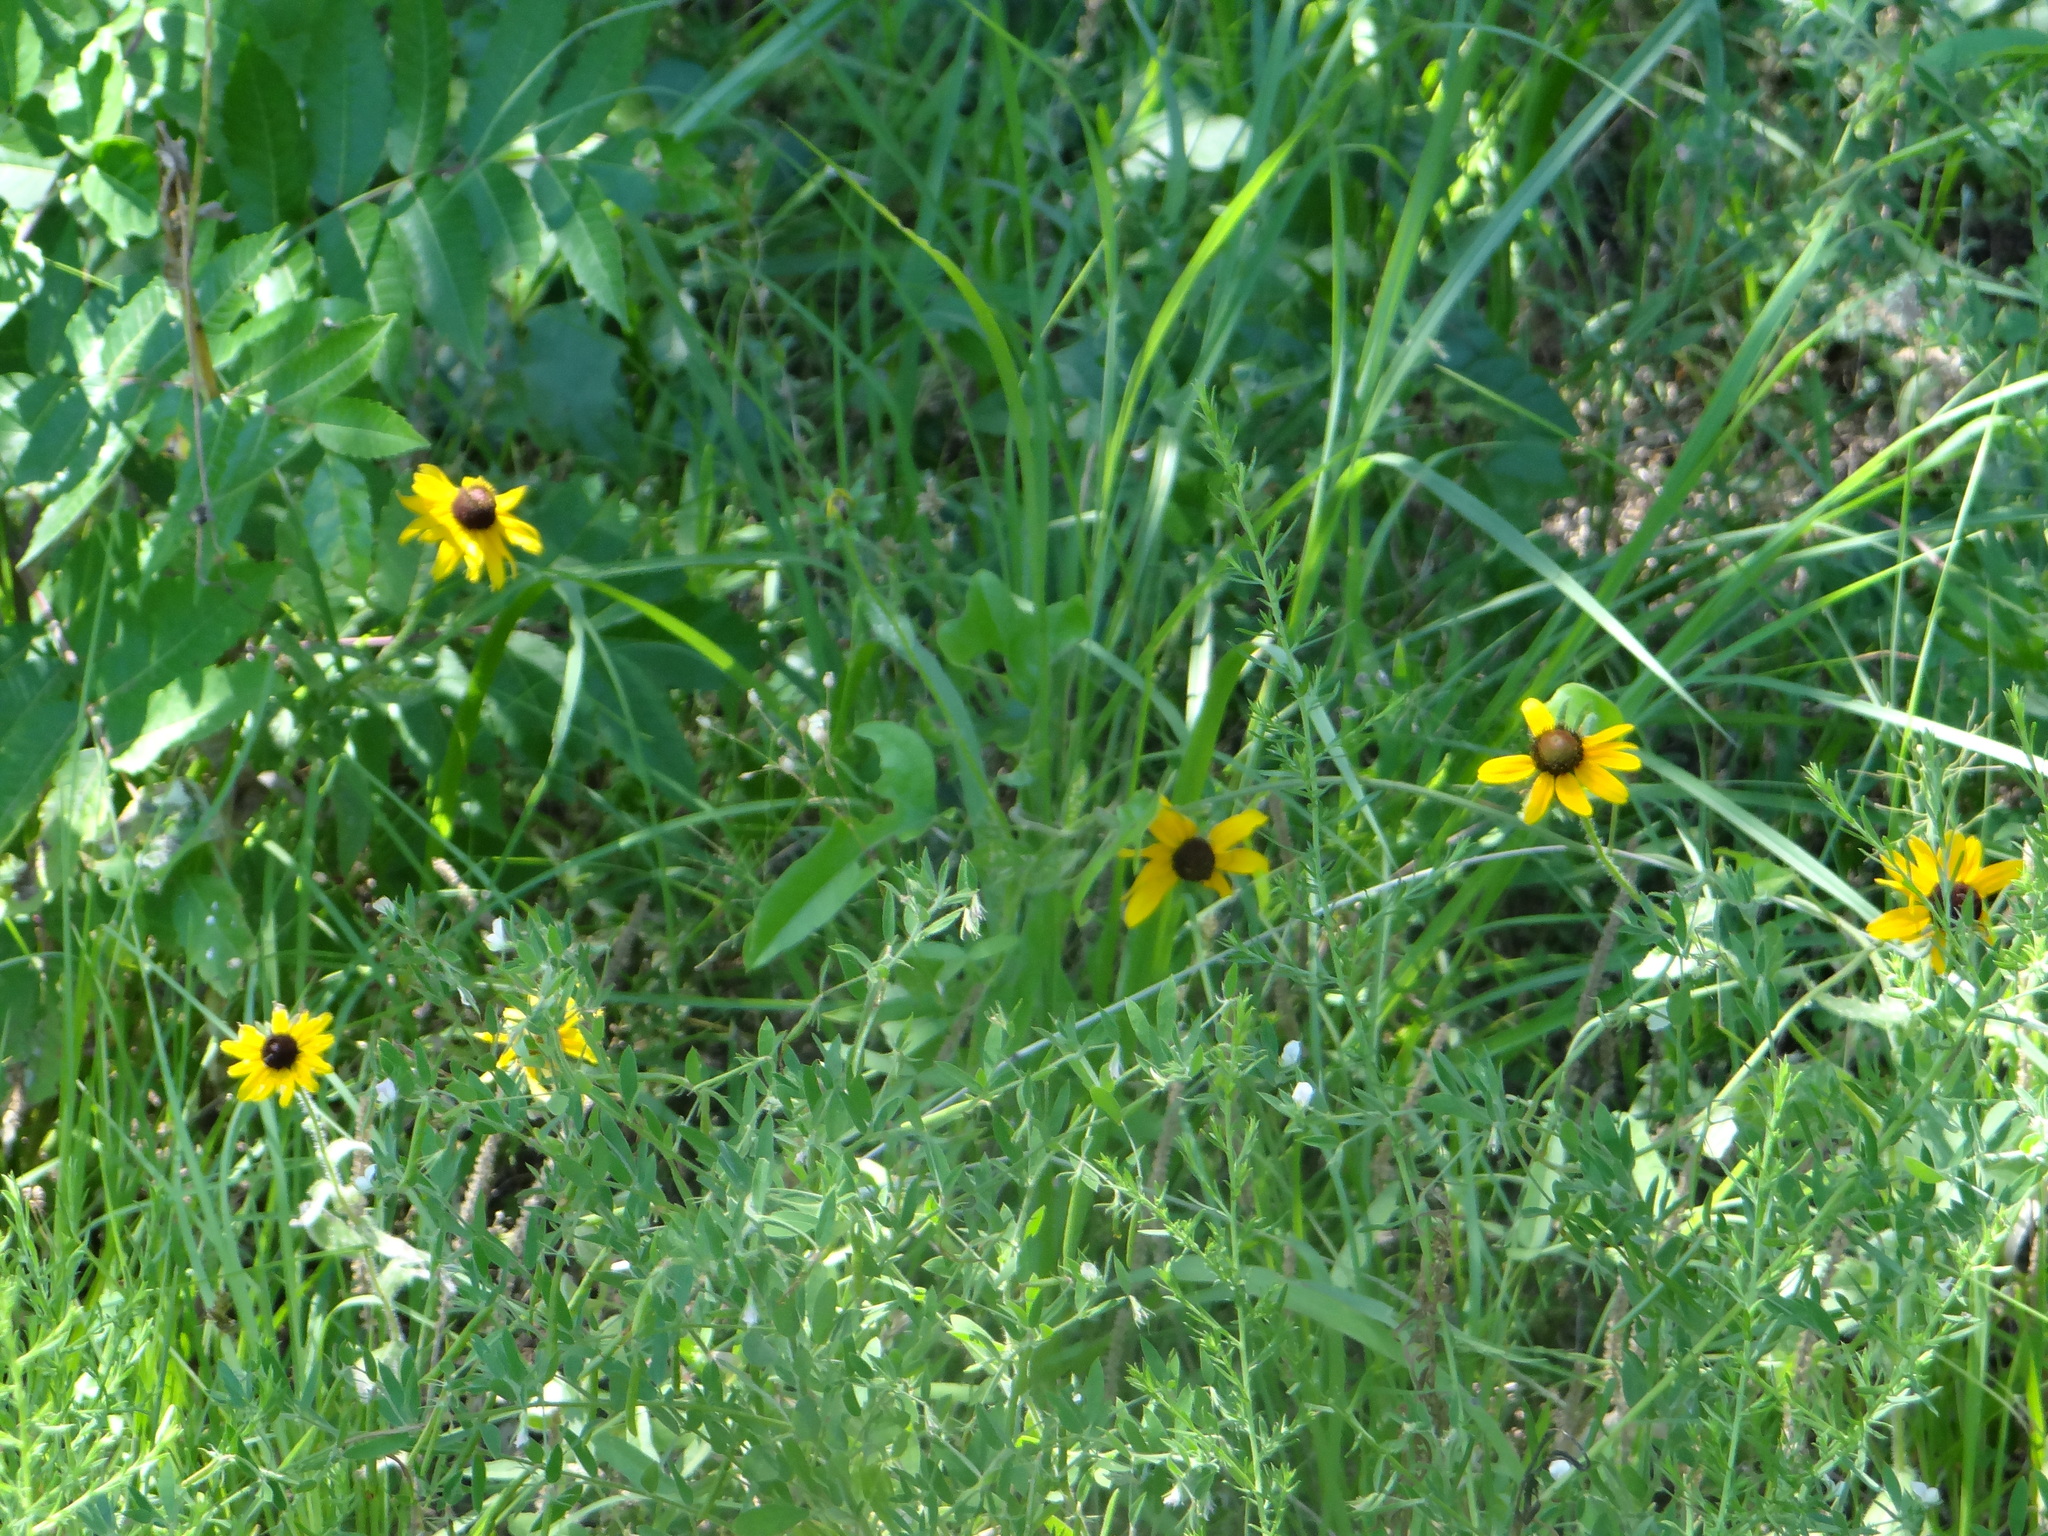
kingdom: Plantae
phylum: Tracheophyta
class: Magnoliopsida
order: Asterales
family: Asteraceae
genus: Rudbeckia
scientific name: Rudbeckia hirta
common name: Black-eyed-susan
